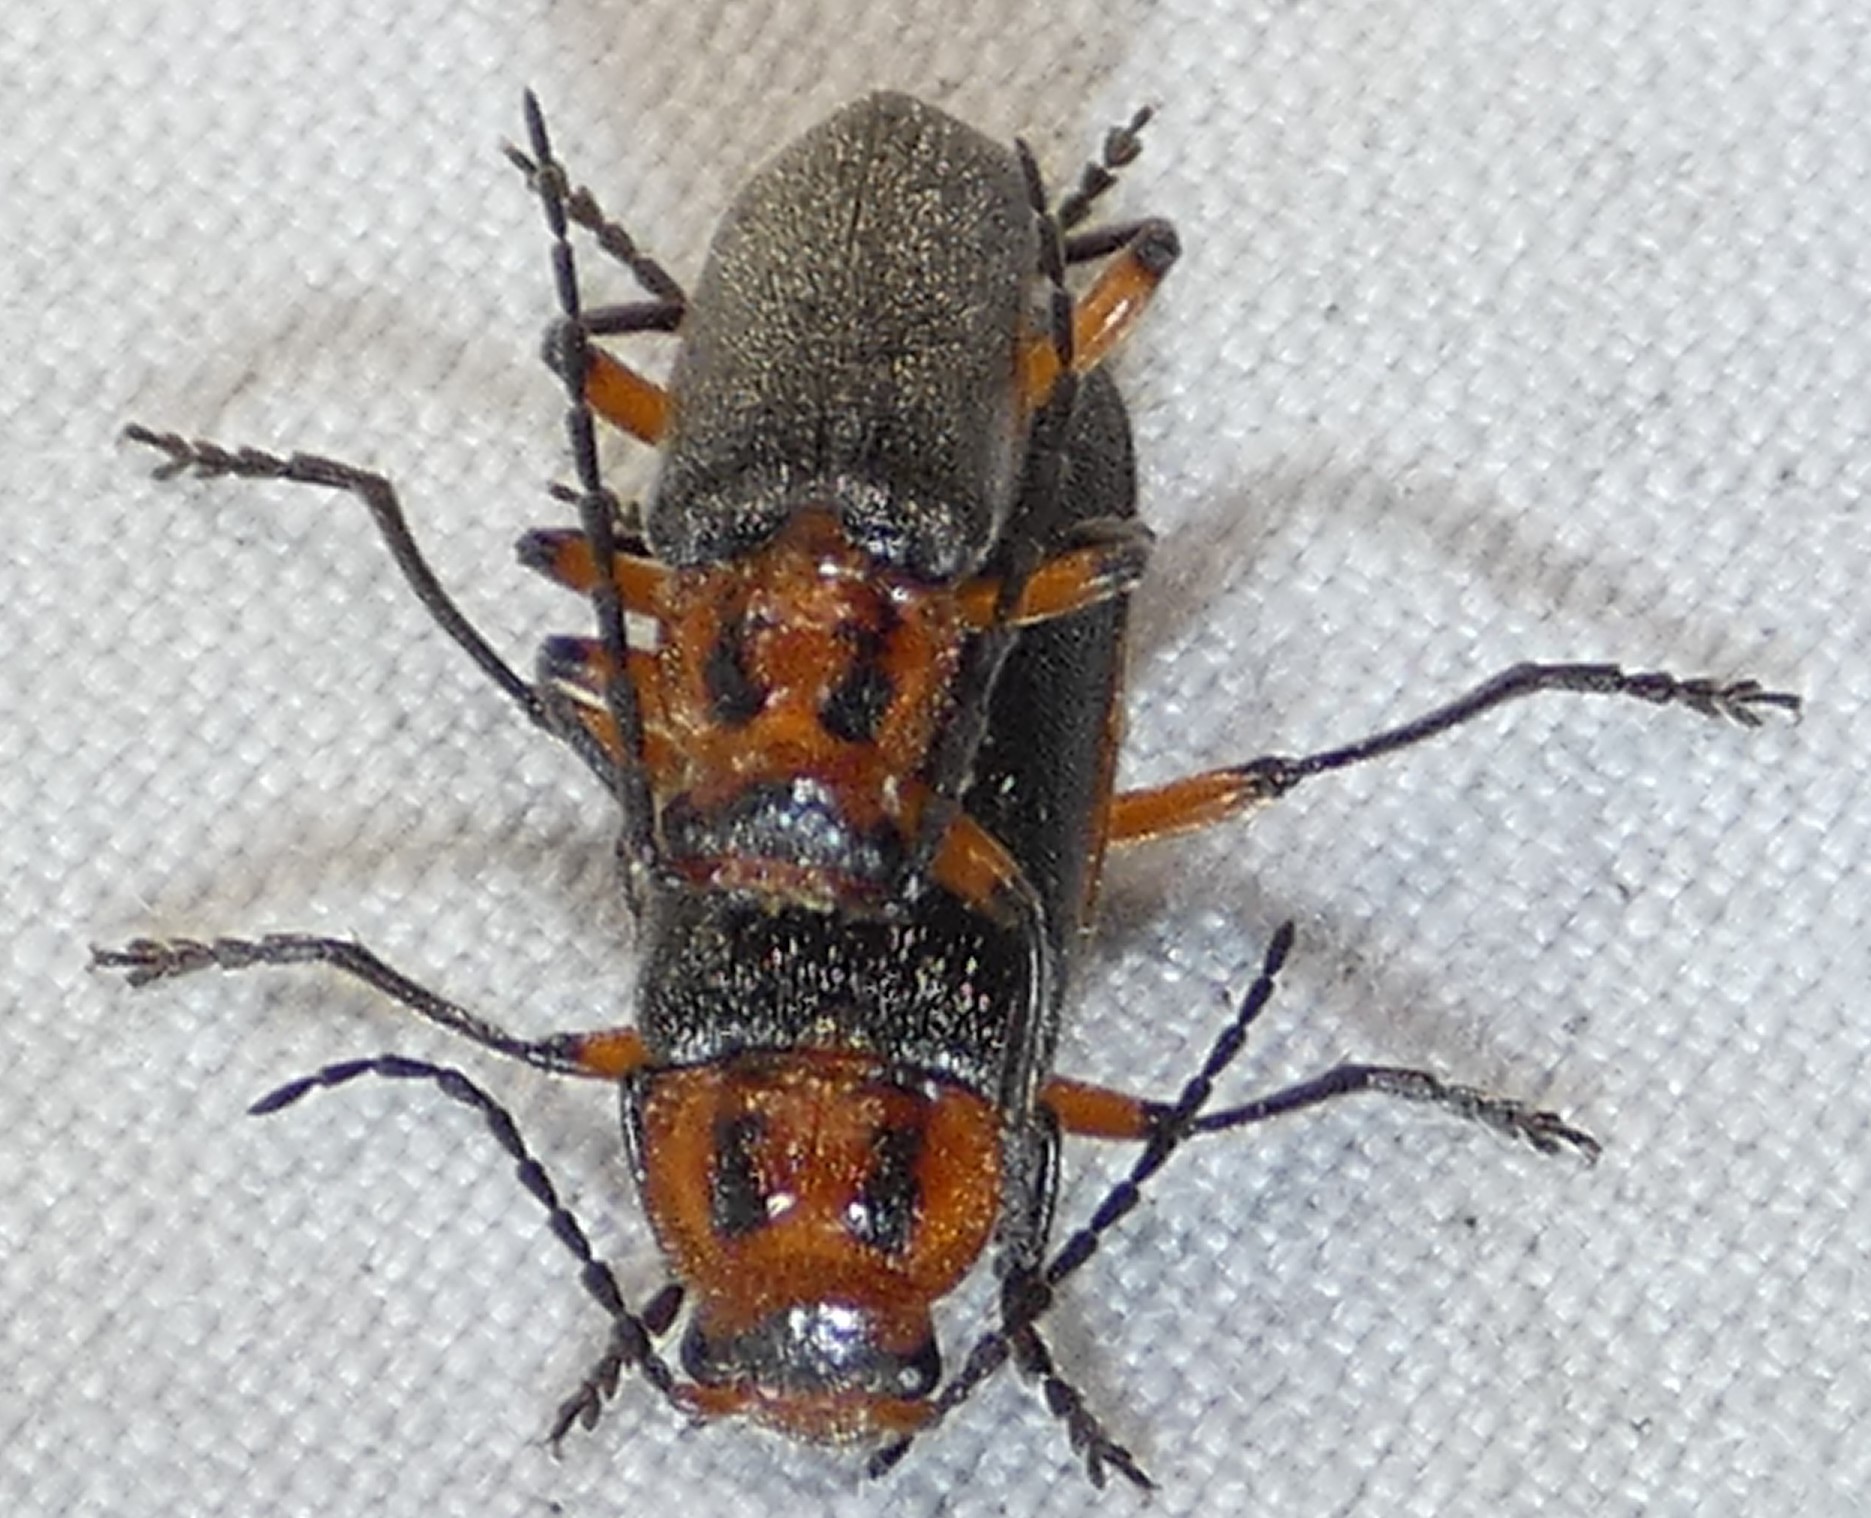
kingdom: Animalia
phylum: Arthropoda
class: Insecta
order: Coleoptera
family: Cantharidae
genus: Atalantycha
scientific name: Atalantycha bilineata
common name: Two-lined leatherwing
